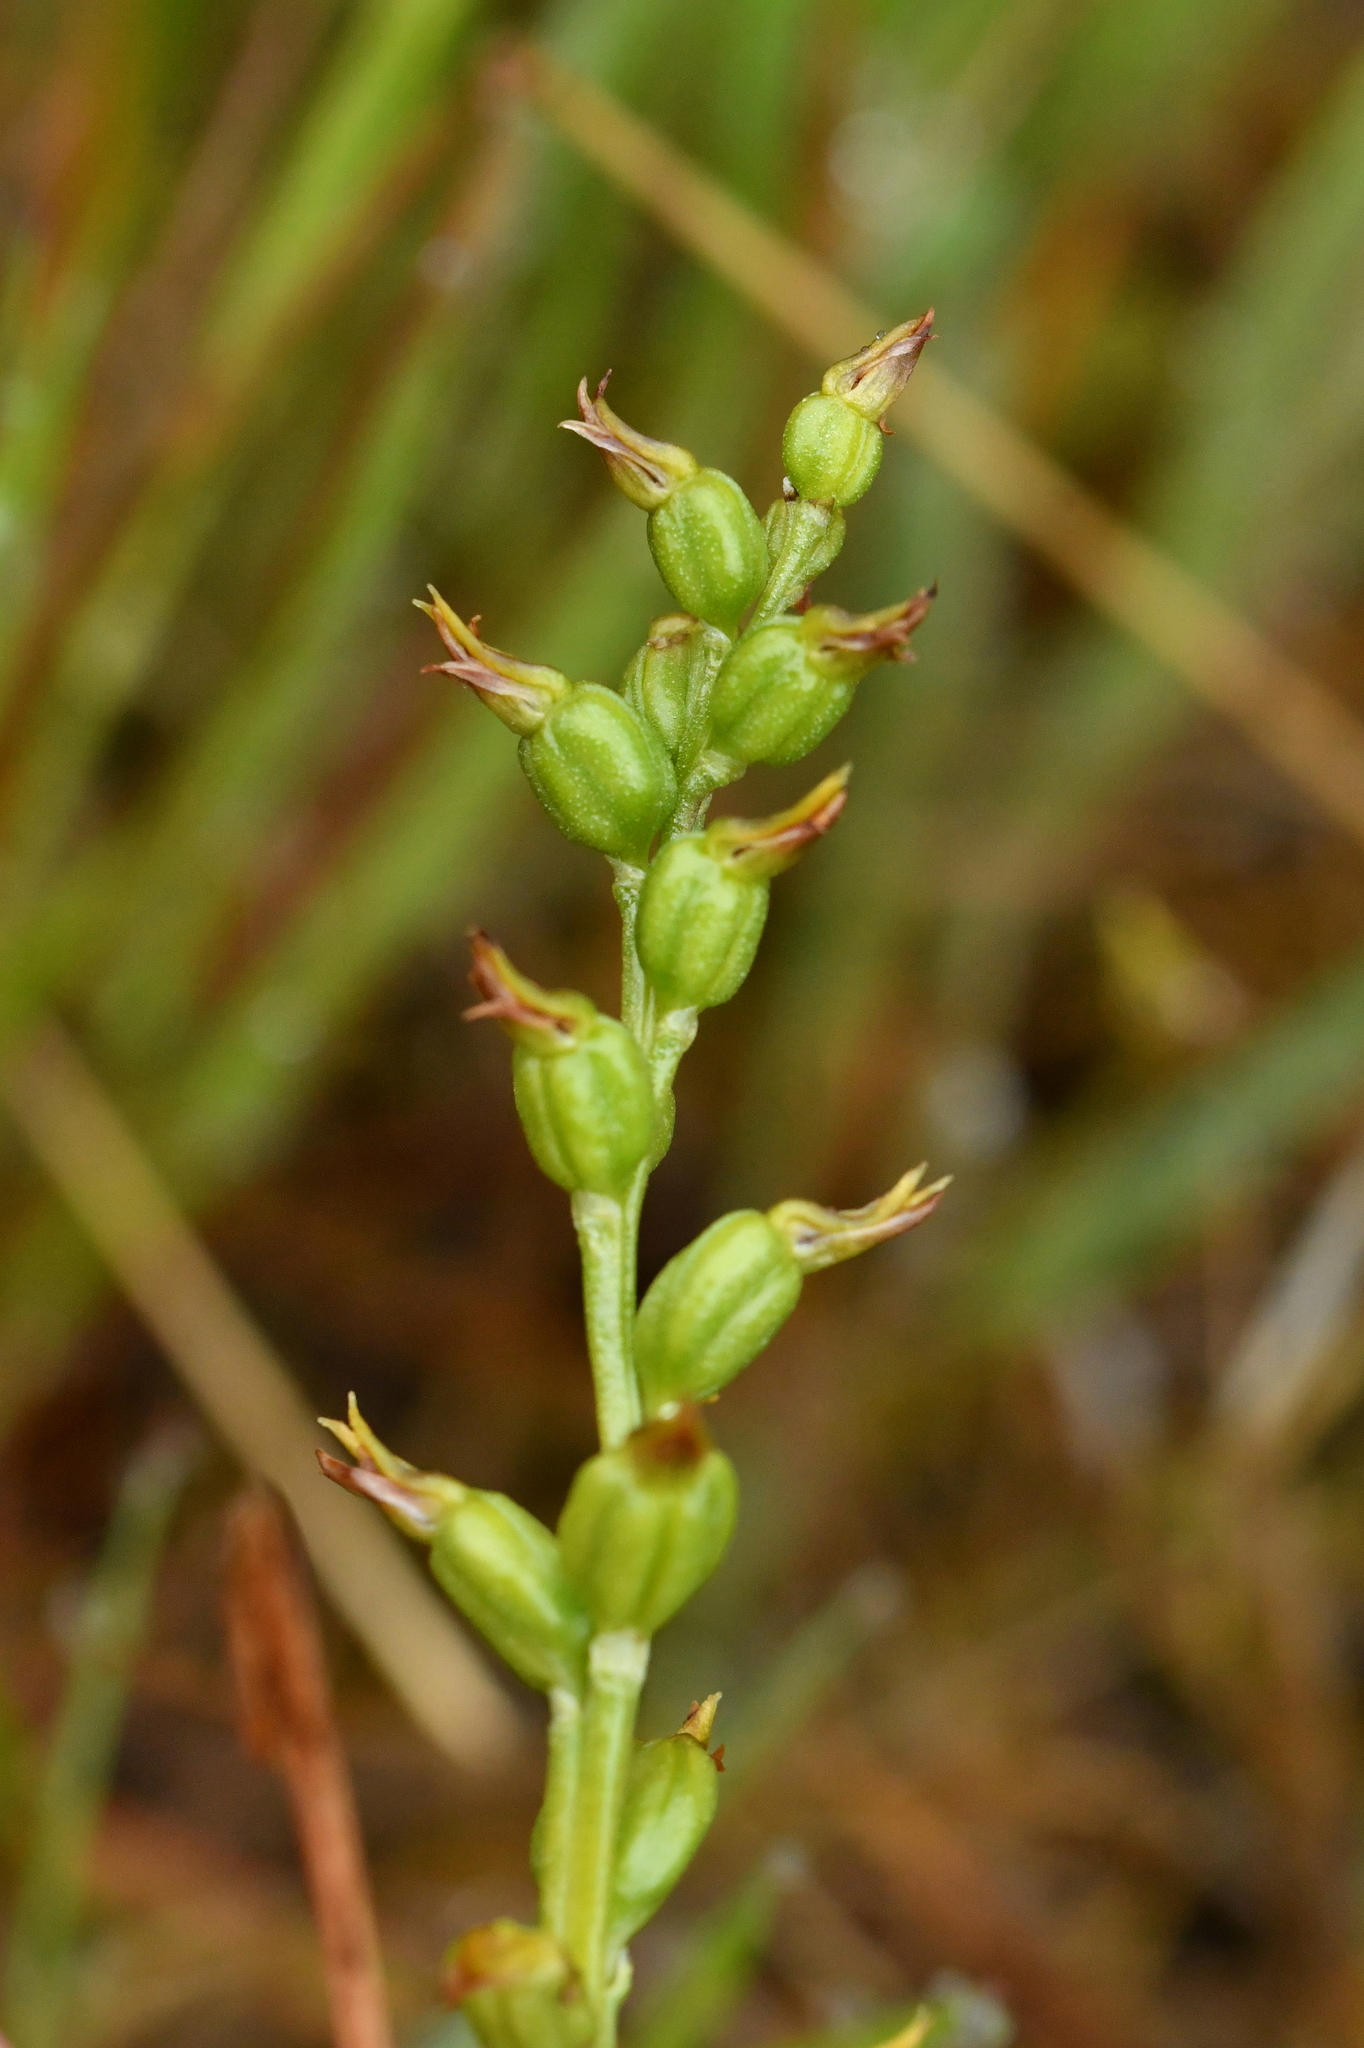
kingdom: Plantae
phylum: Tracheophyta
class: Liliopsida
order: Asparagales
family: Orchidaceae
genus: Prasophyllum
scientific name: Prasophyllum colensoi
